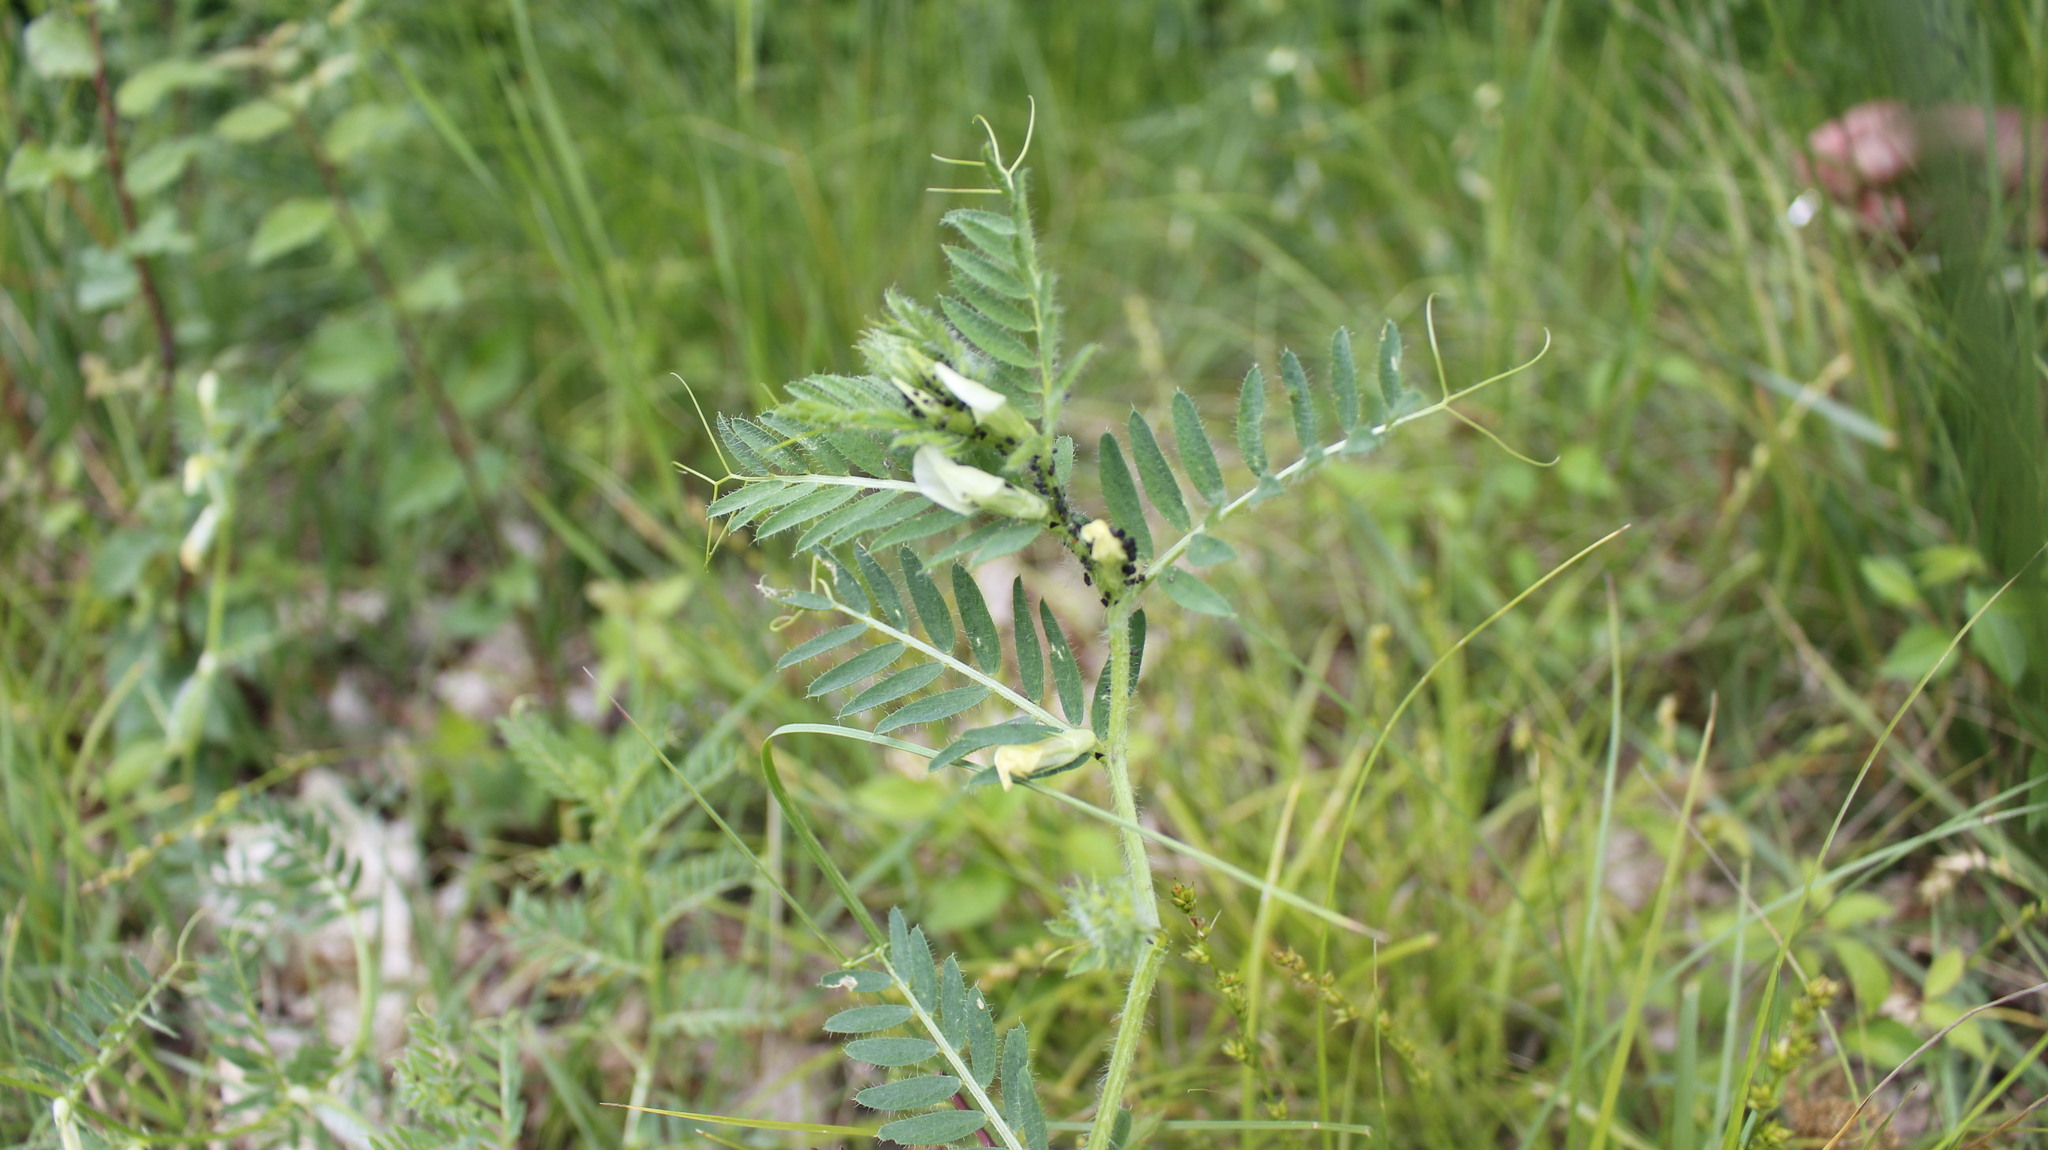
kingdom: Plantae
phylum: Tracheophyta
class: Magnoliopsida
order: Fabales
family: Fabaceae
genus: Vicia
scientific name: Vicia lutea
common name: Smooth yellow vetch
